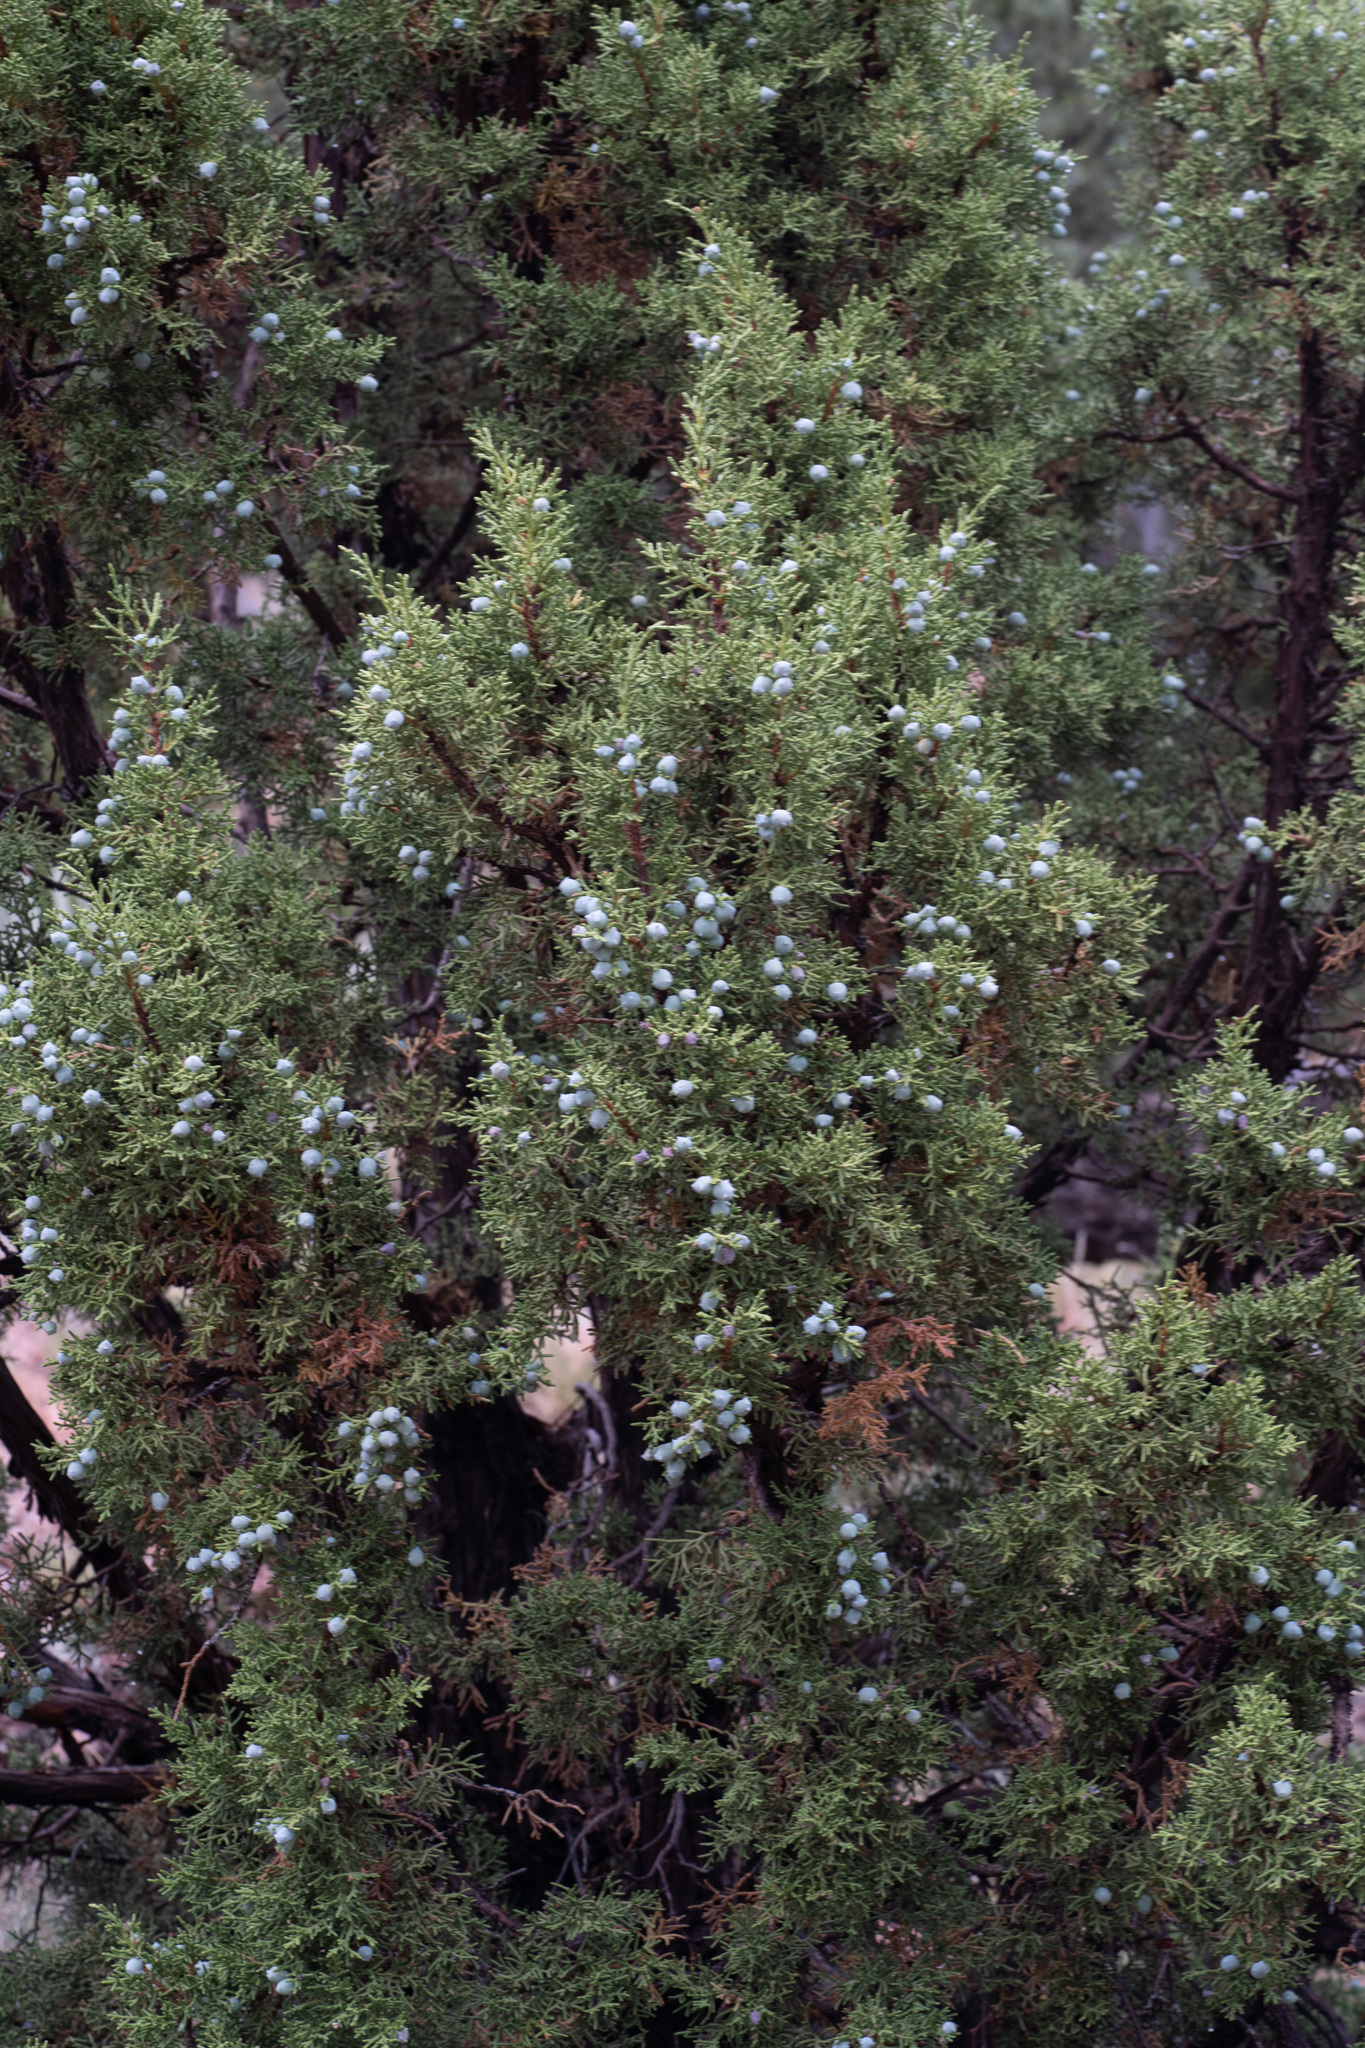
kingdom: Plantae
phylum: Tracheophyta
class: Pinopsida
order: Pinales
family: Cupressaceae
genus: Juniperus
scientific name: Juniperus osteosperma
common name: Utah juniper
